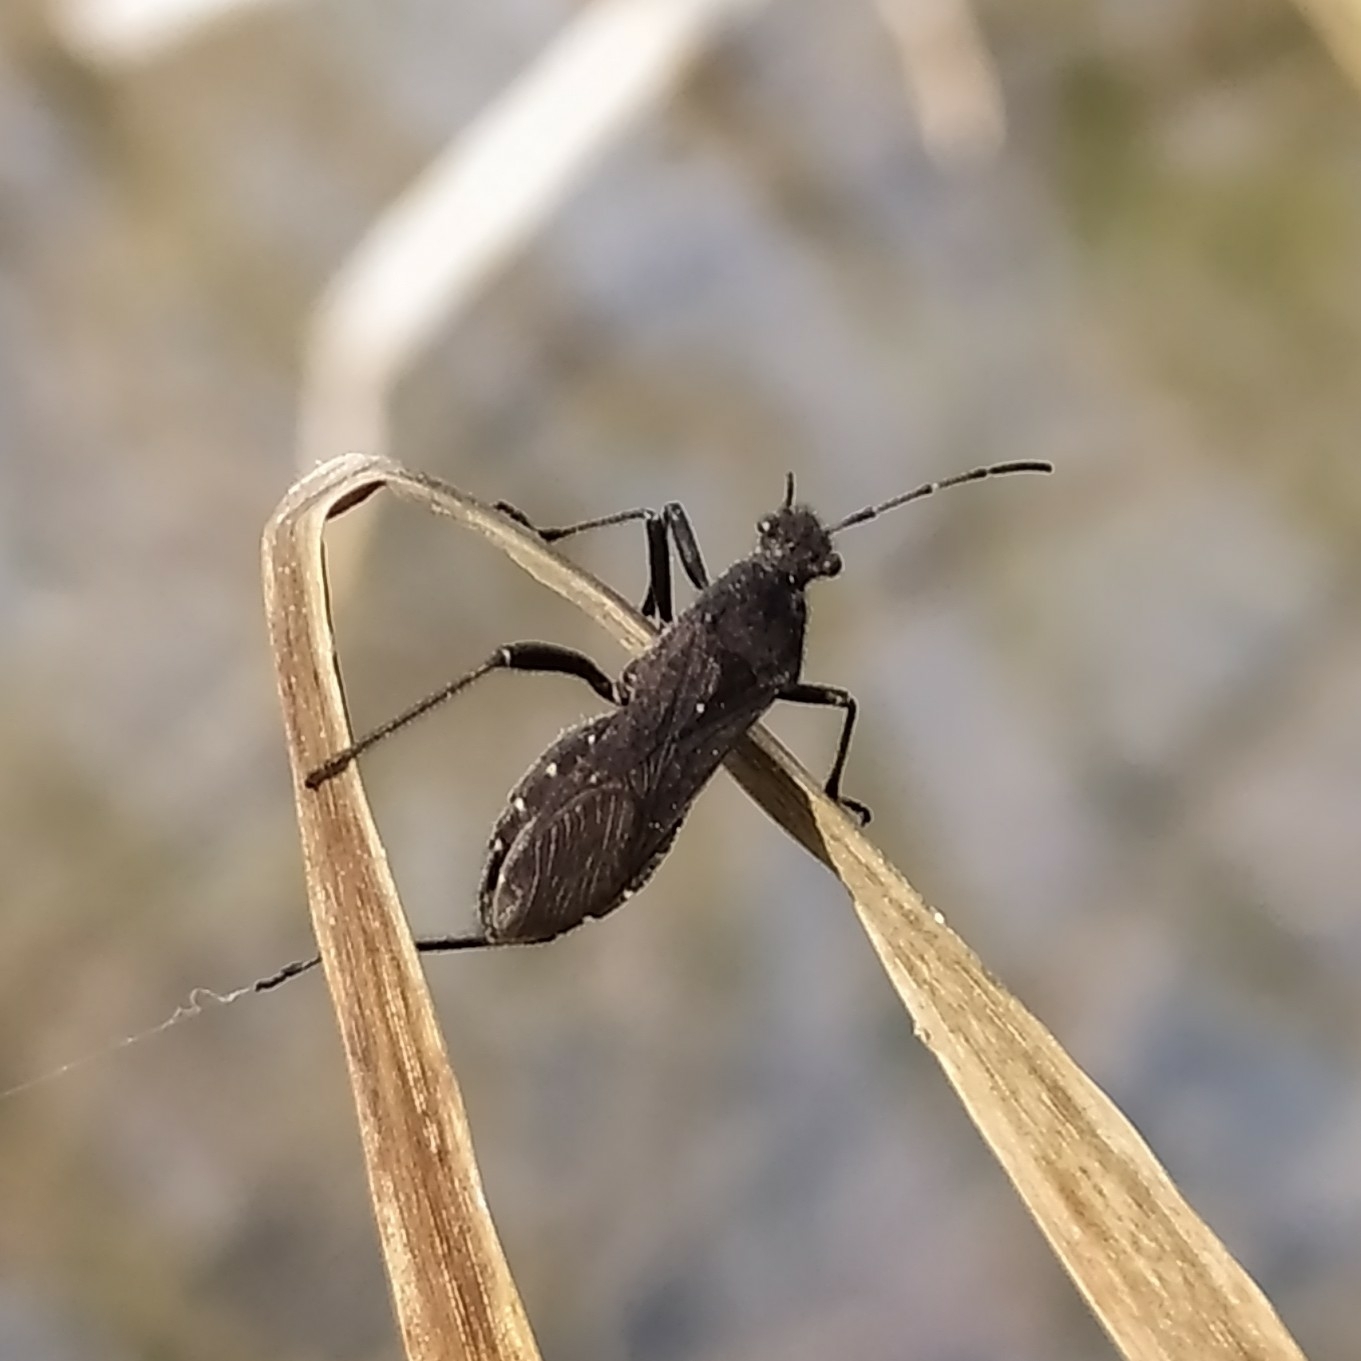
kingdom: Animalia
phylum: Arthropoda
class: Insecta
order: Hemiptera
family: Alydidae
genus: Alydus
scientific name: Alydus calcaratus
